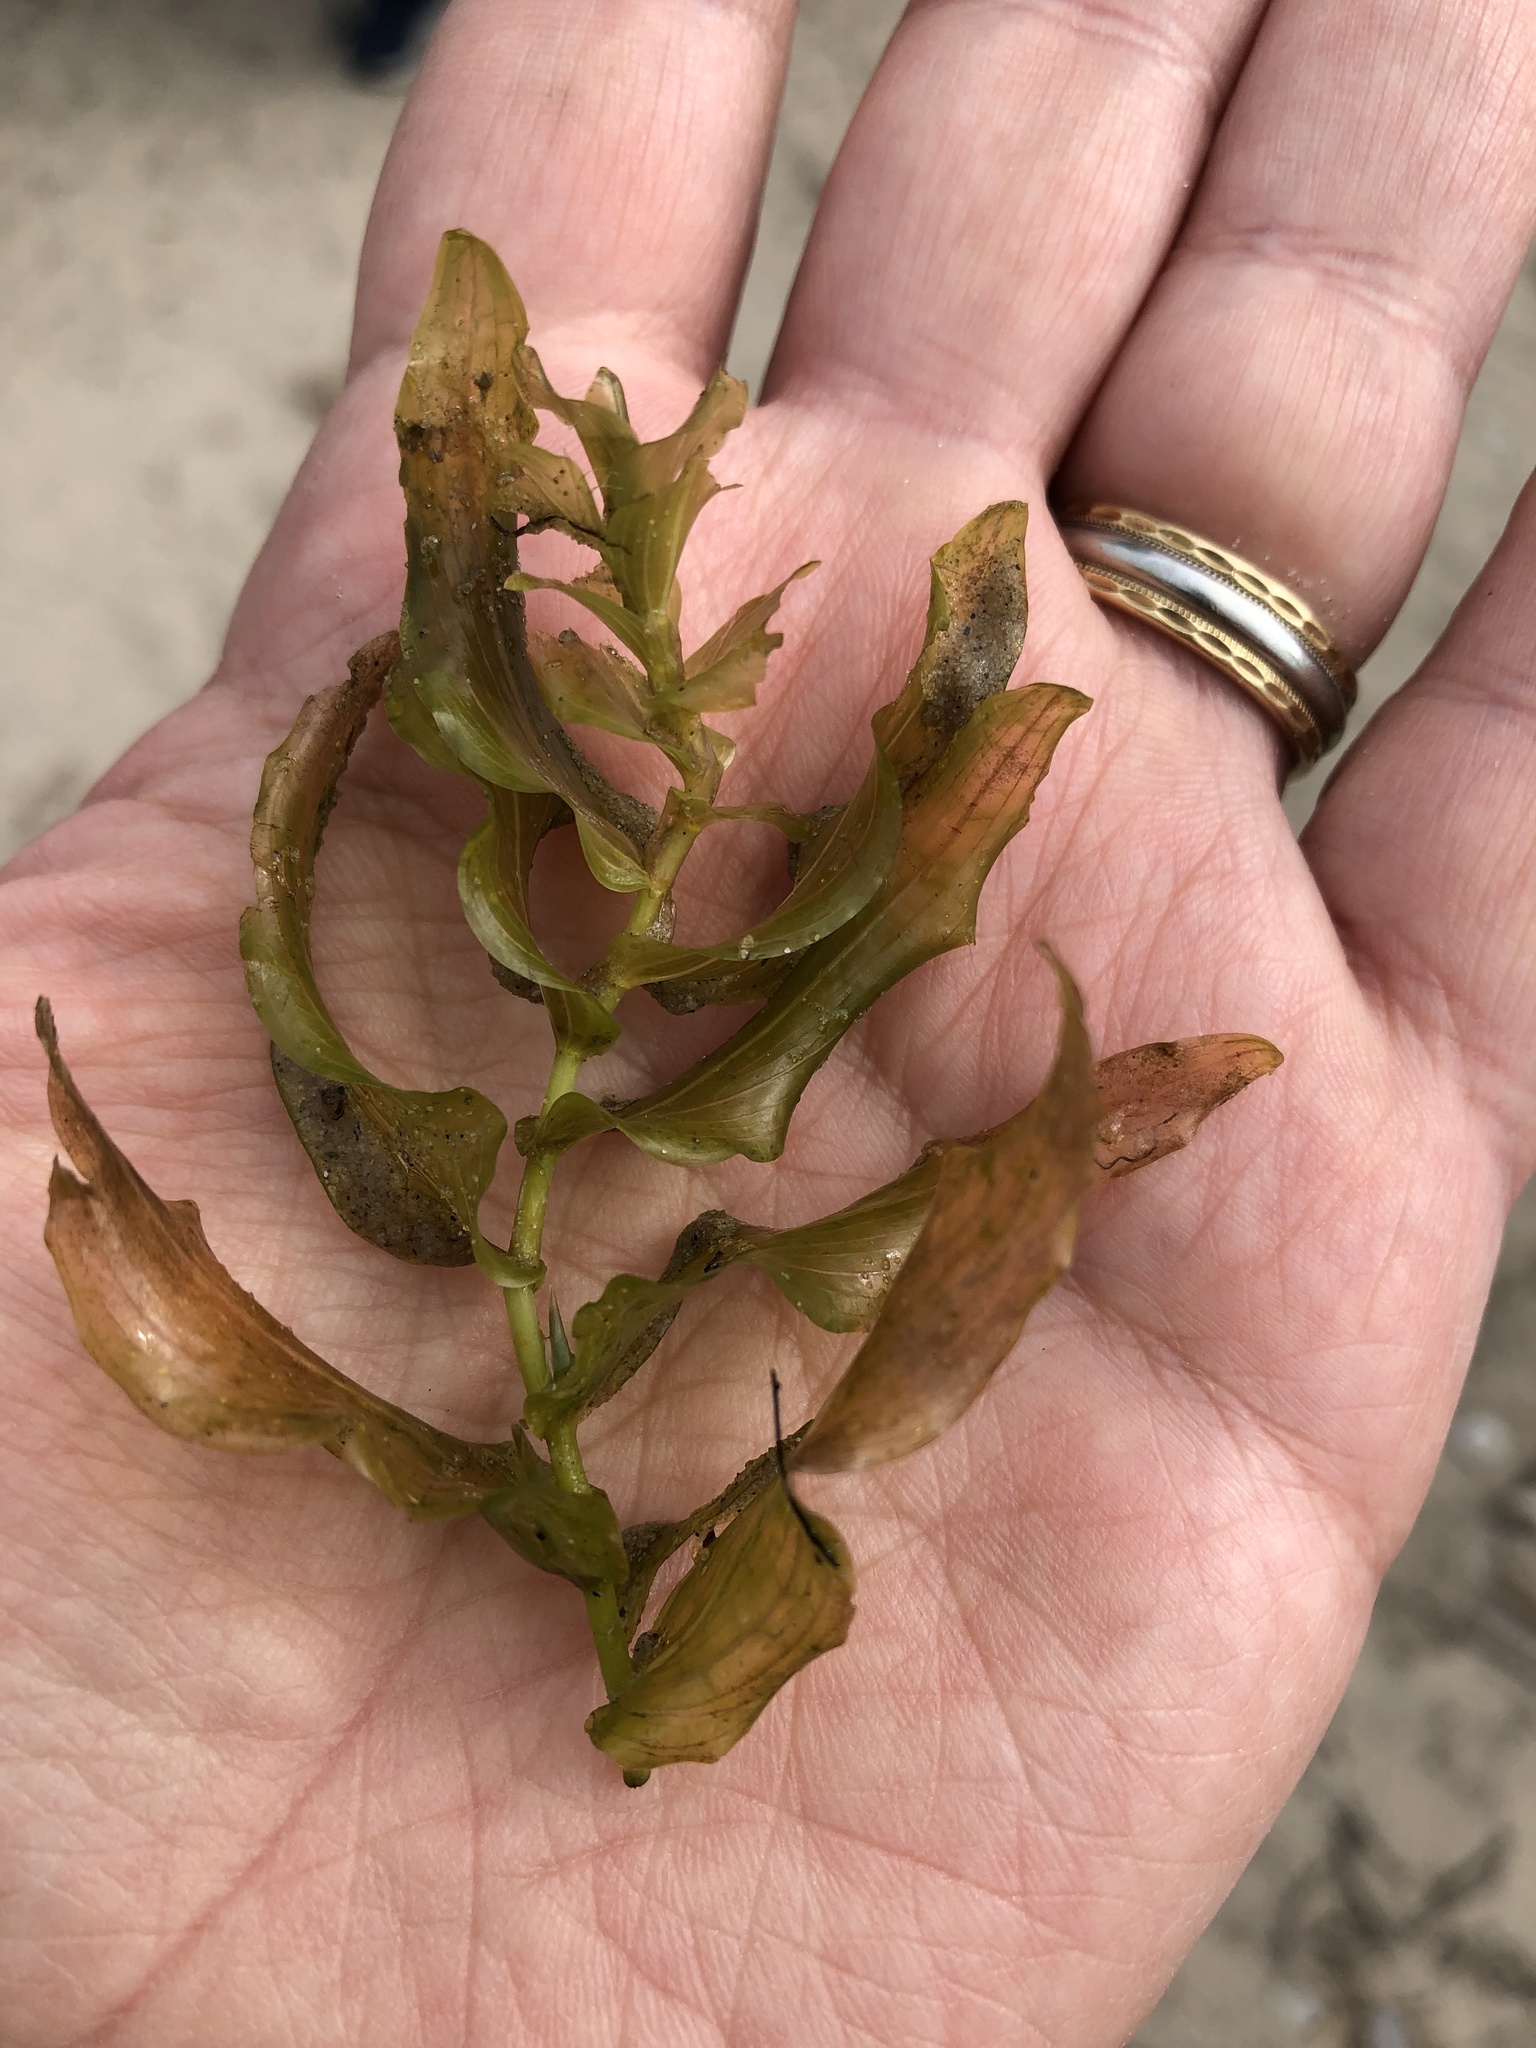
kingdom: Plantae
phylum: Tracheophyta
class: Liliopsida
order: Alismatales
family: Potamogetonaceae
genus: Potamogeton
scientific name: Potamogeton richardsonii
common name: Richardson's pondweed
